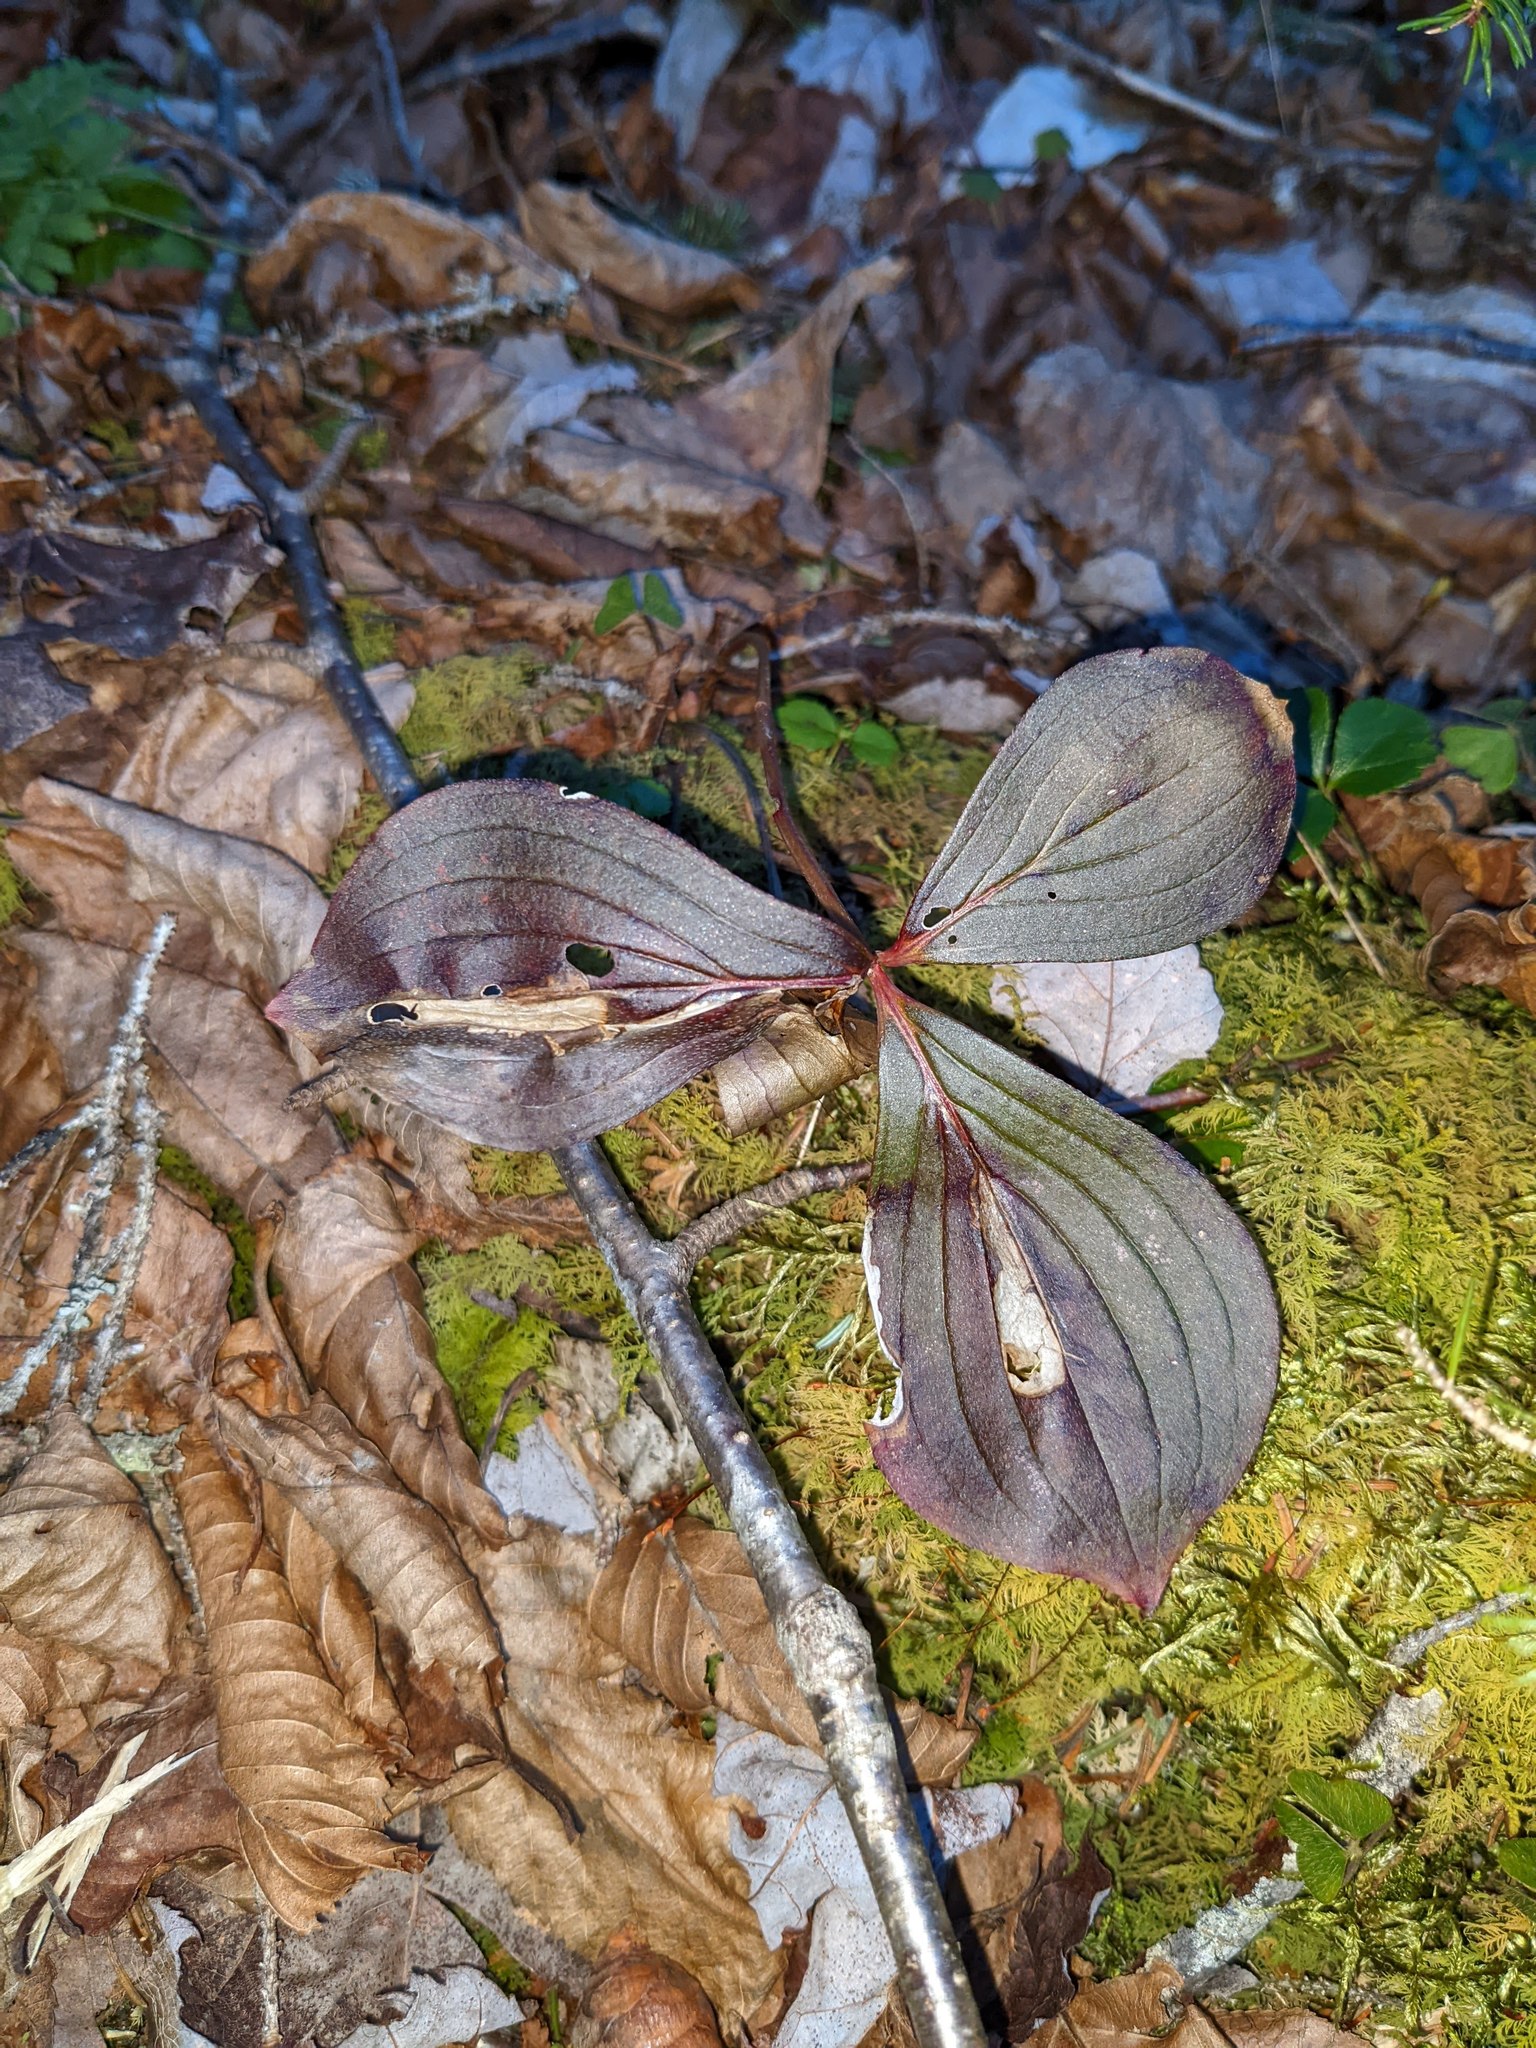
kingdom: Plantae
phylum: Tracheophyta
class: Magnoliopsida
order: Cornales
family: Cornaceae
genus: Cornus
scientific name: Cornus canadensis
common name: Creeping dogwood
